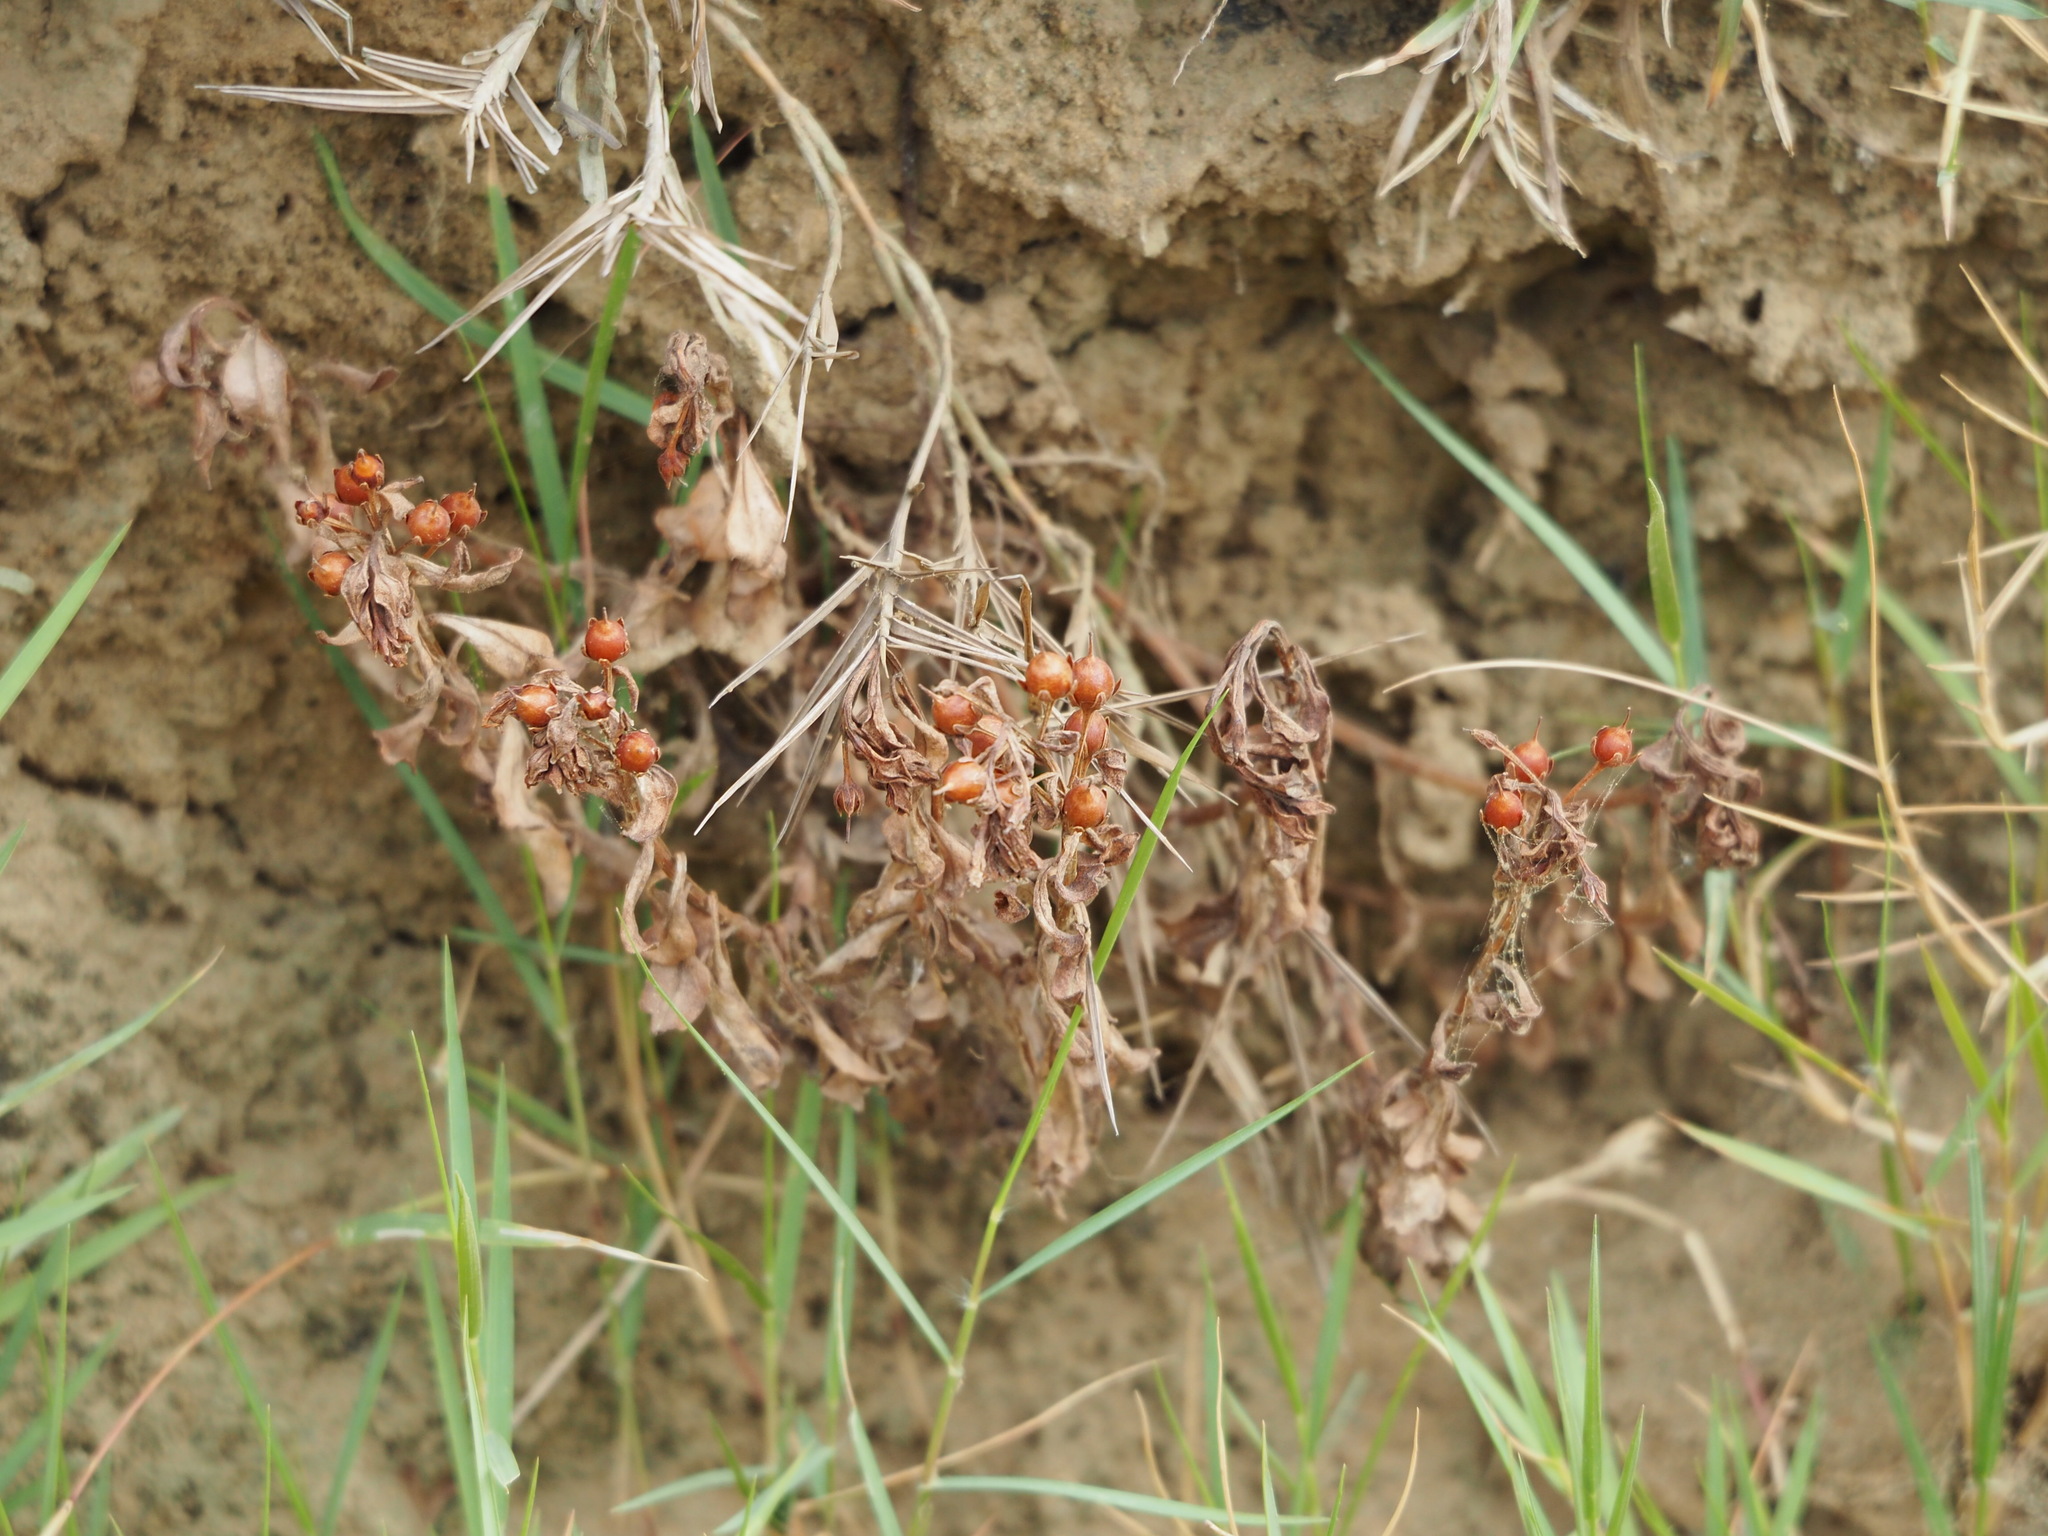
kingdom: Plantae
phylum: Tracheophyta
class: Magnoliopsida
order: Ericales
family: Primulaceae
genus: Lysimachia
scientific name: Lysimachia mauritiana
